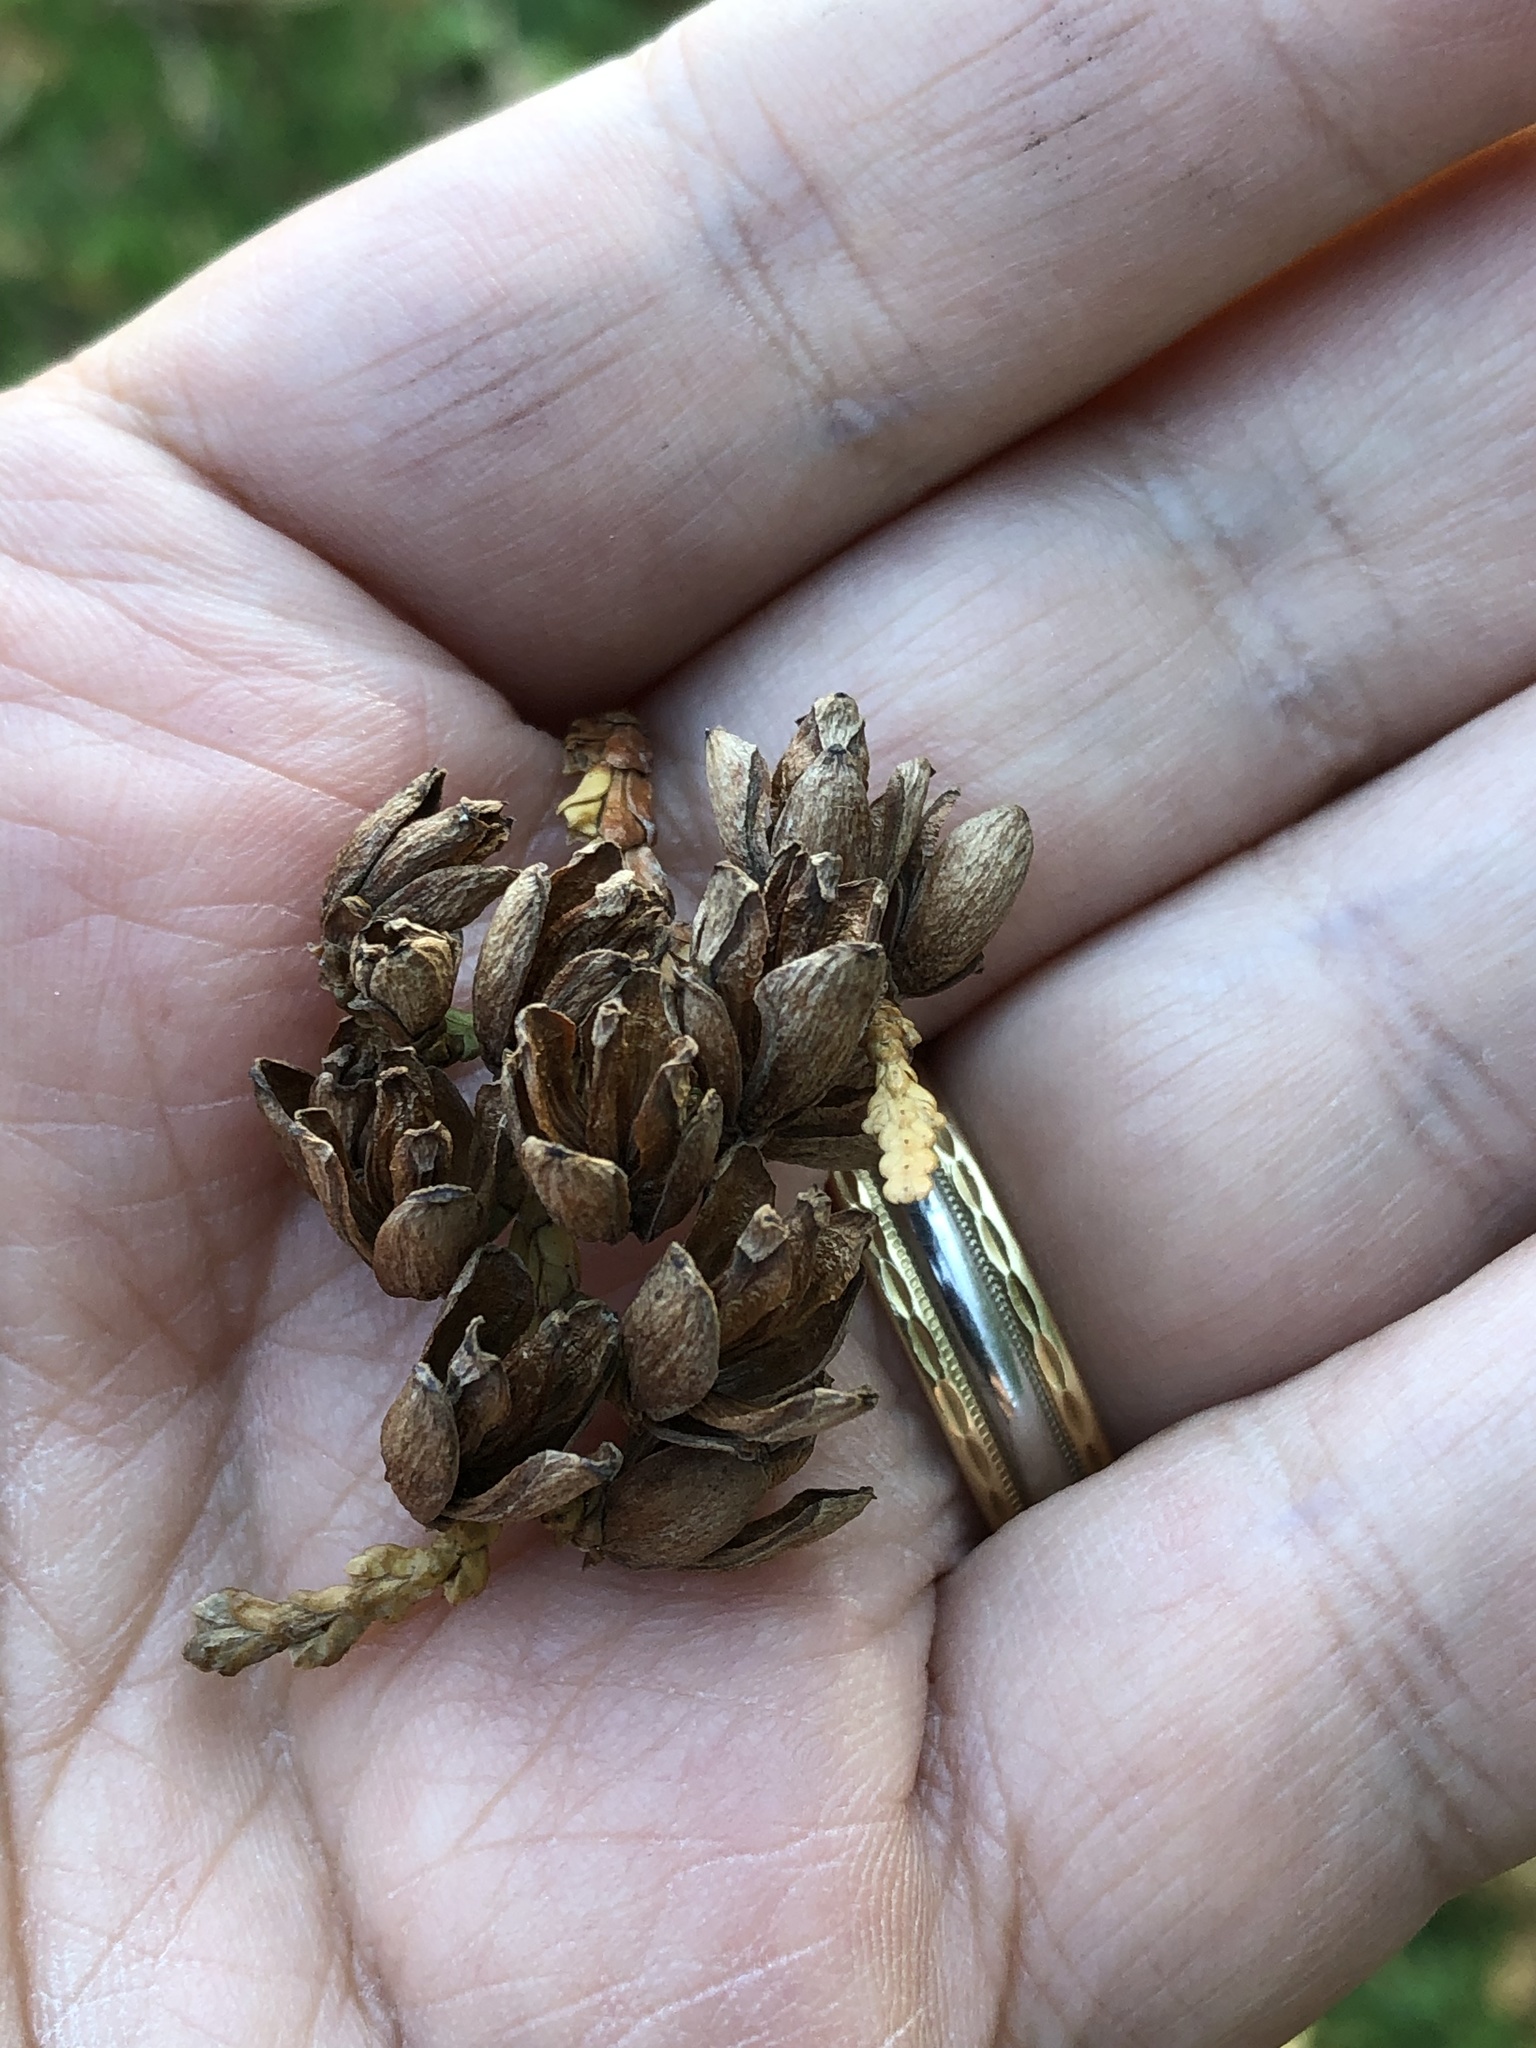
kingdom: Plantae
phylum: Tracheophyta
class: Pinopsida
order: Pinales
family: Cupressaceae
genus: Thuja
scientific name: Thuja occidentalis
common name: Northern white-cedar
